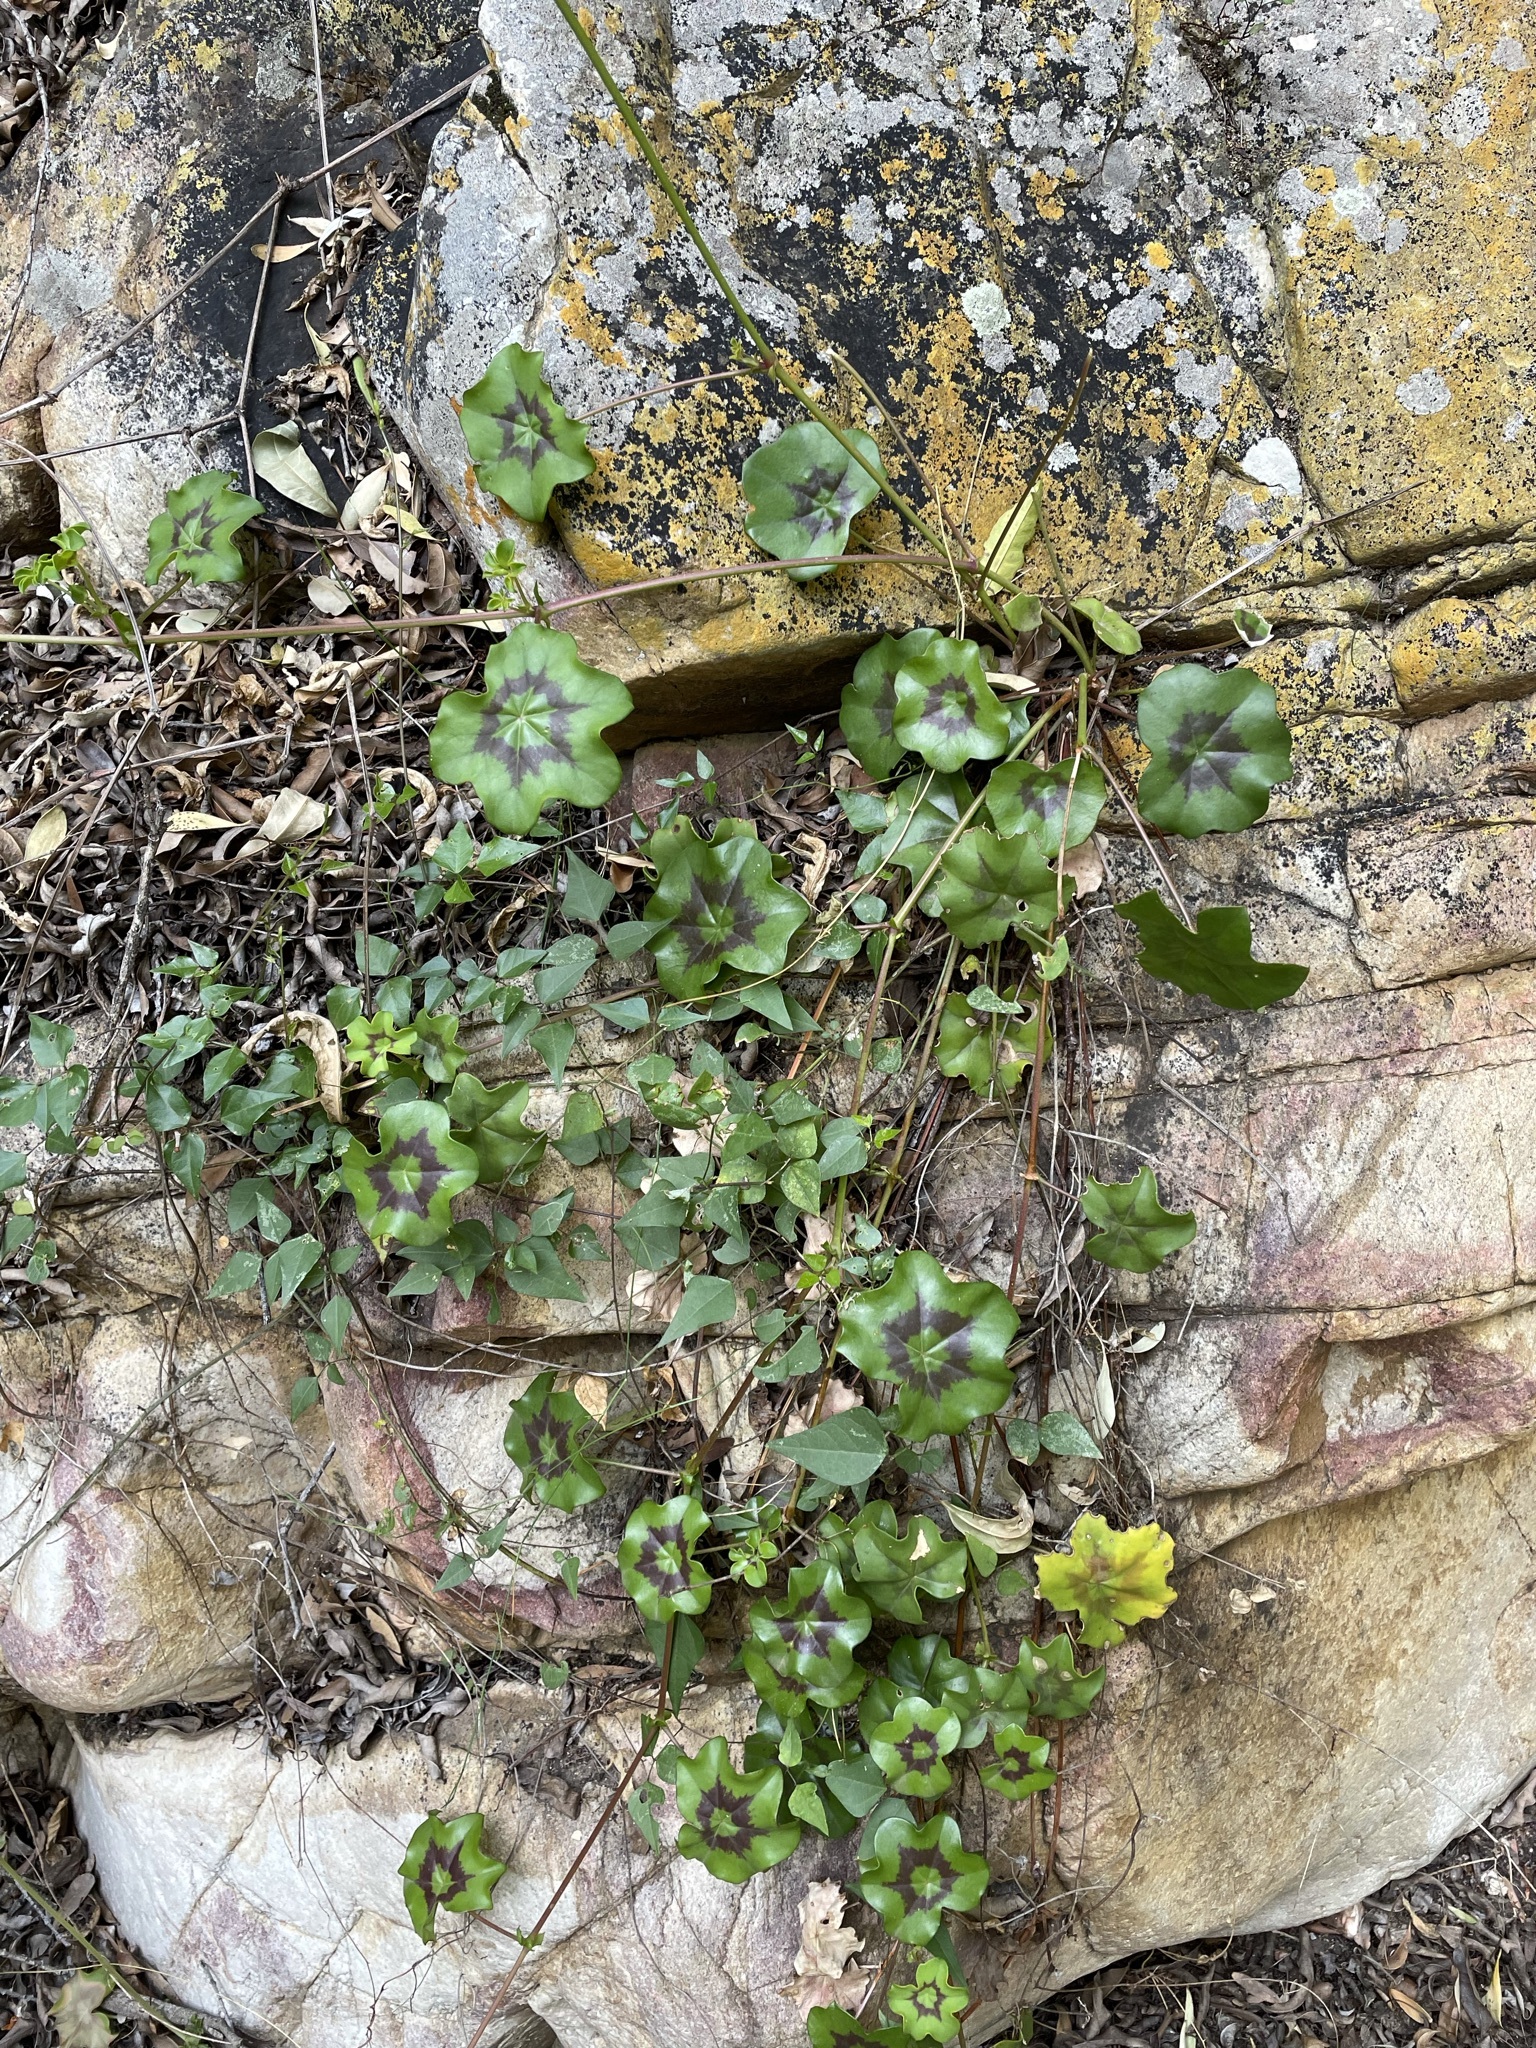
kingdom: Plantae
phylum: Tracheophyta
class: Magnoliopsida
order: Geraniales
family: Geraniaceae
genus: Pelargonium
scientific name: Pelargonium peltatum
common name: Ivyleaf geranium
